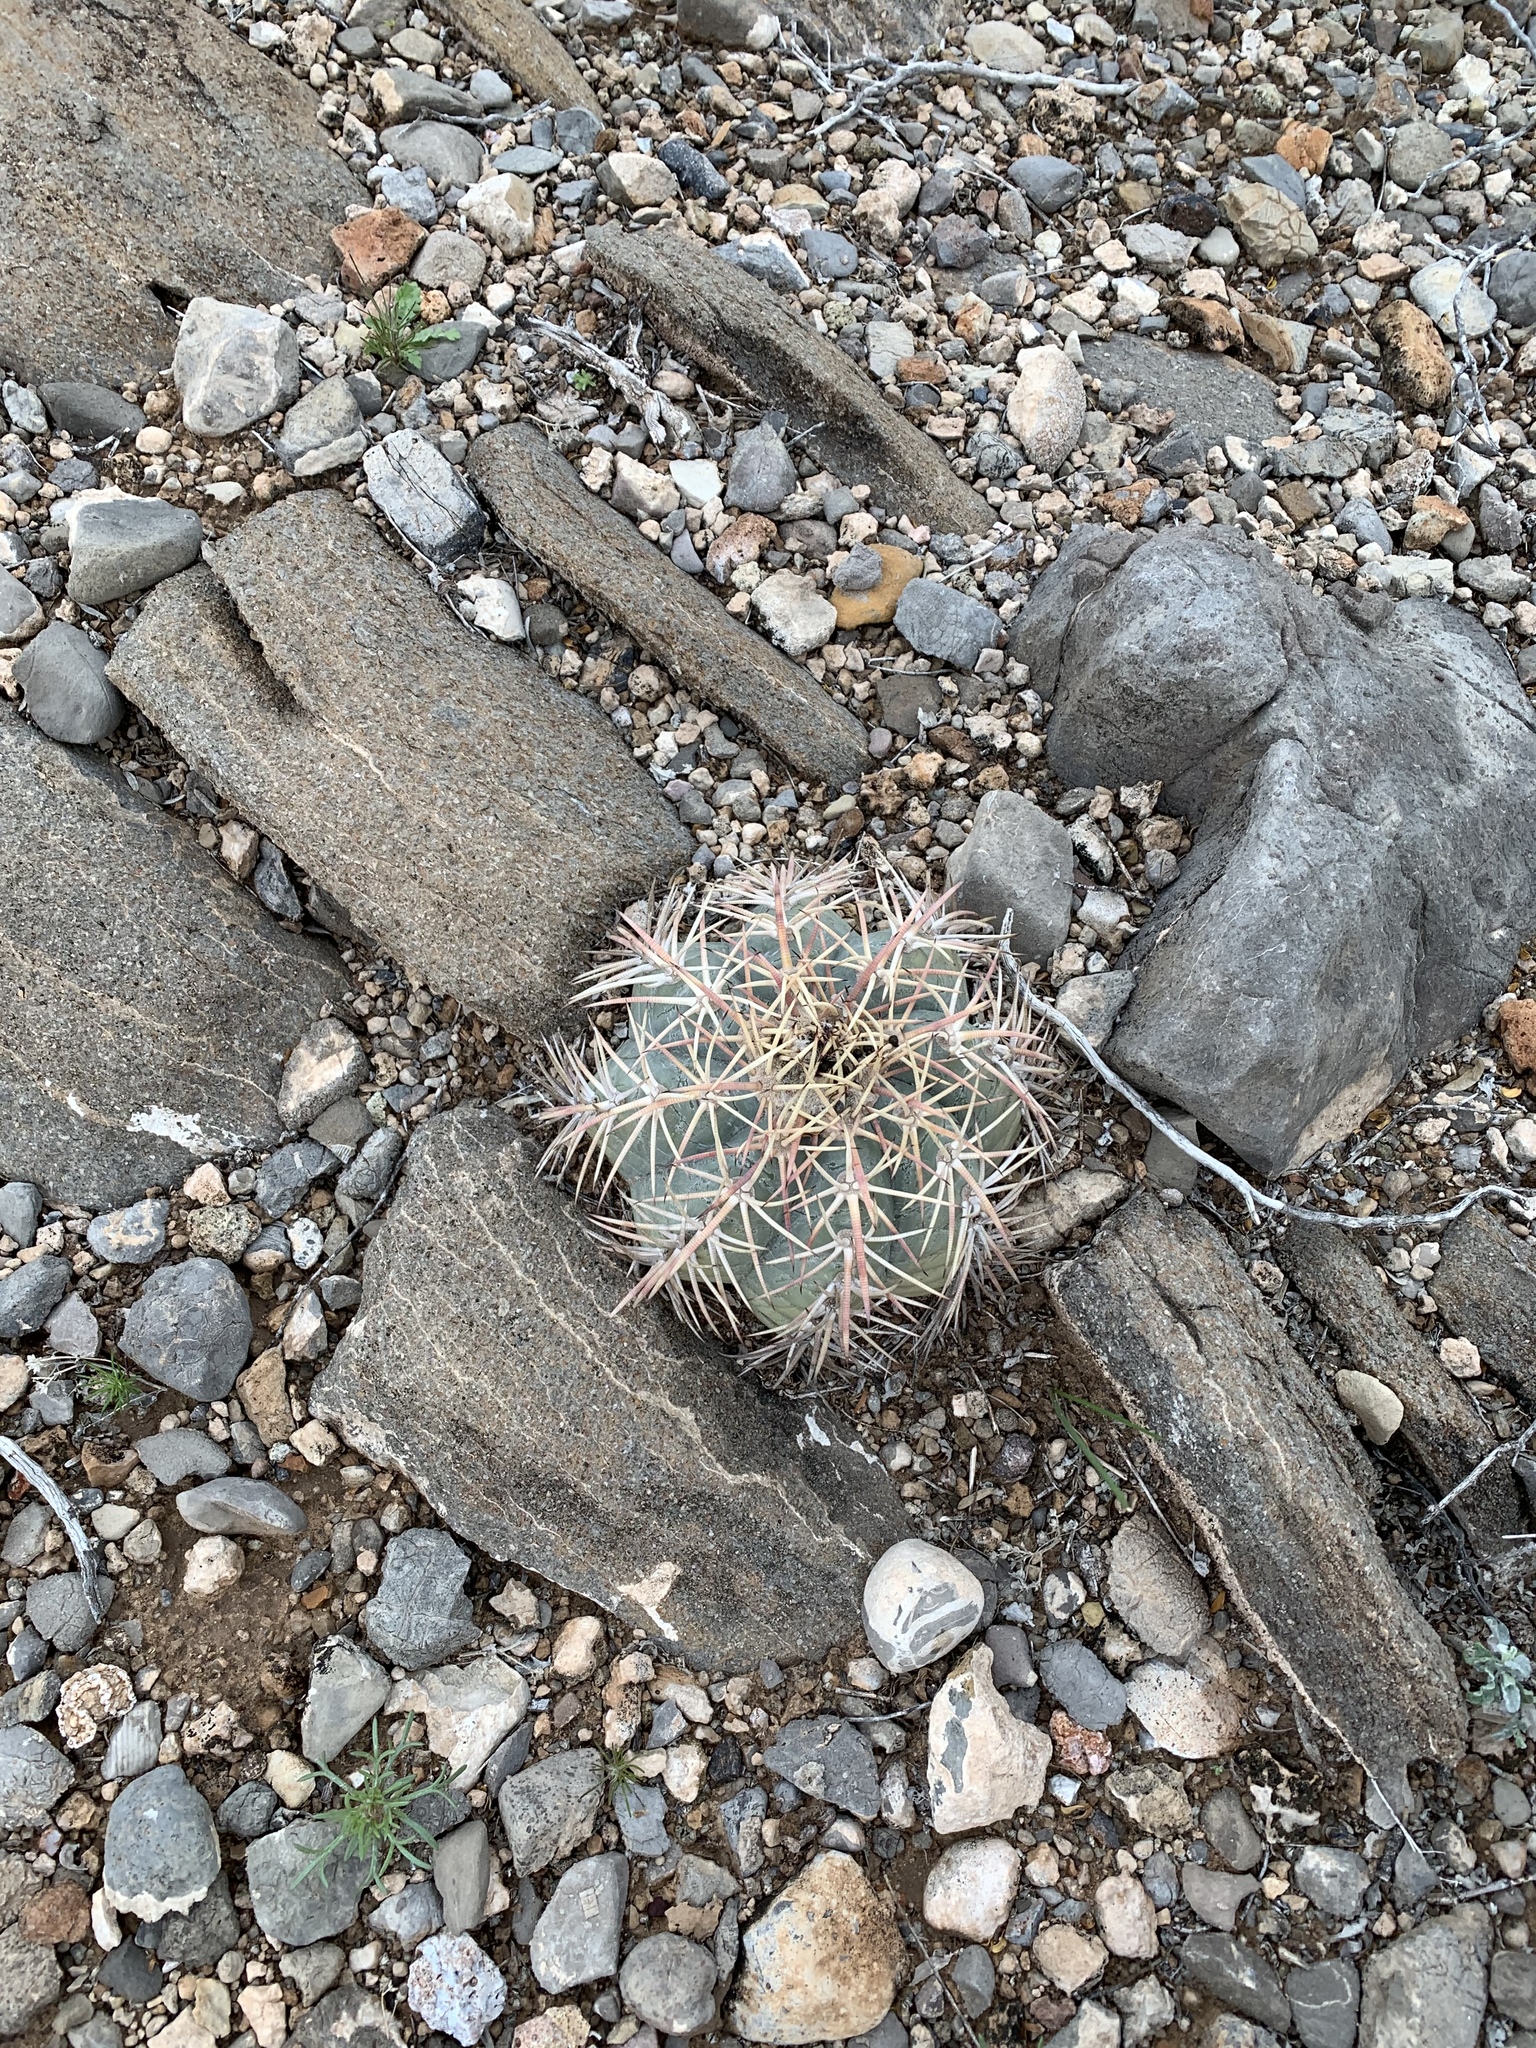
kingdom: Plantae
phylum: Tracheophyta
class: Magnoliopsida
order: Caryophyllales
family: Cactaceae
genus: Echinocactus
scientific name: Echinocactus horizonthalonius
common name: Devilshead
